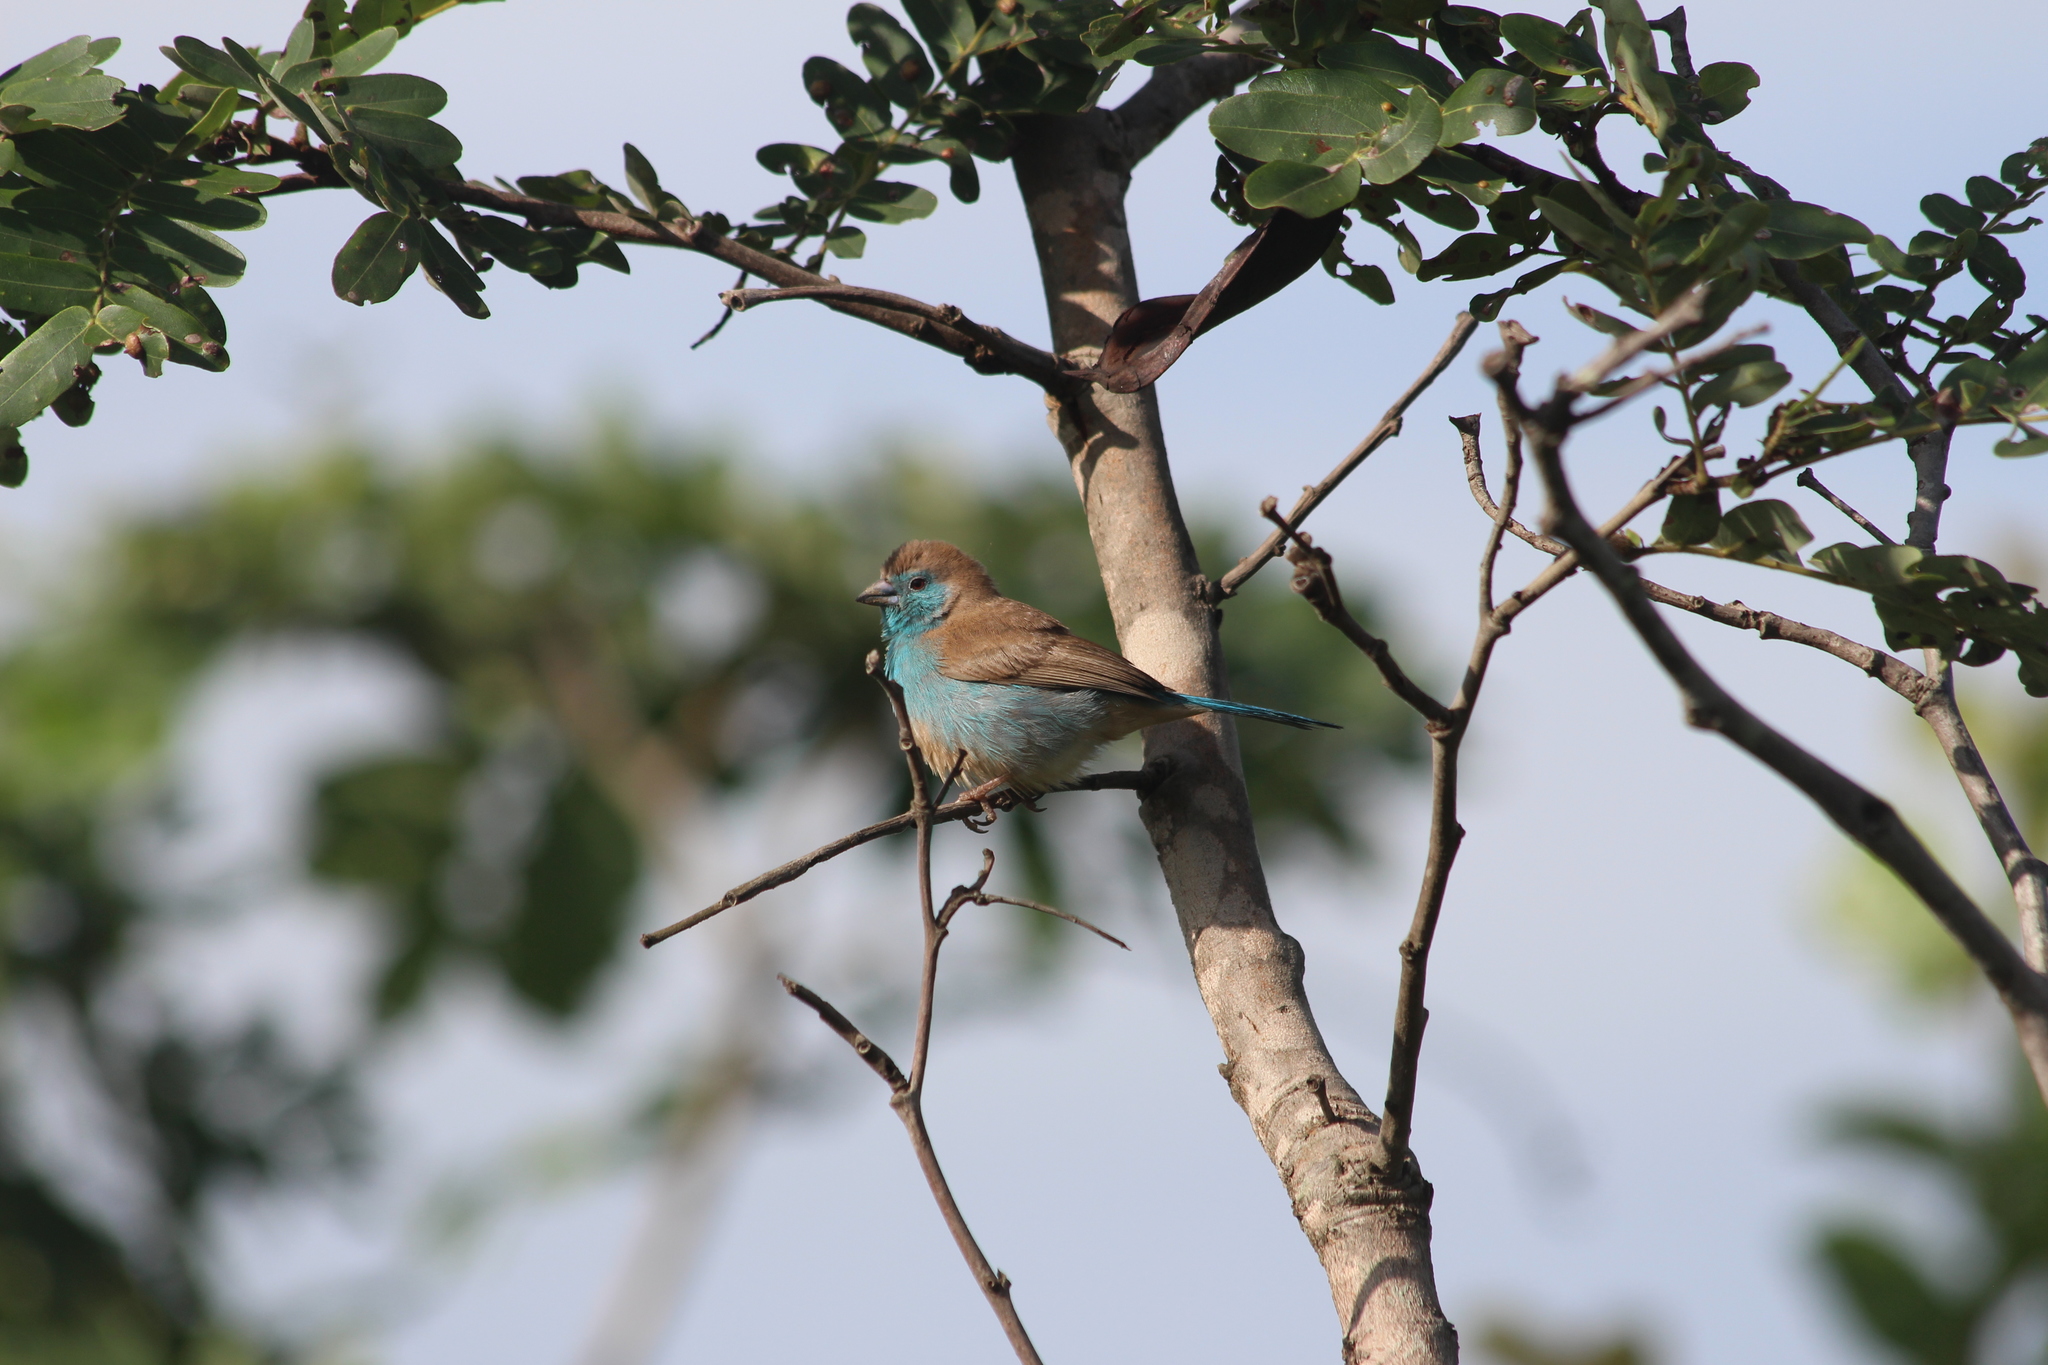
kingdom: Animalia
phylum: Chordata
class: Aves
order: Passeriformes
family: Estrildidae
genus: Uraeginthus
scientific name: Uraeginthus angolensis
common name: Blue waxbill
